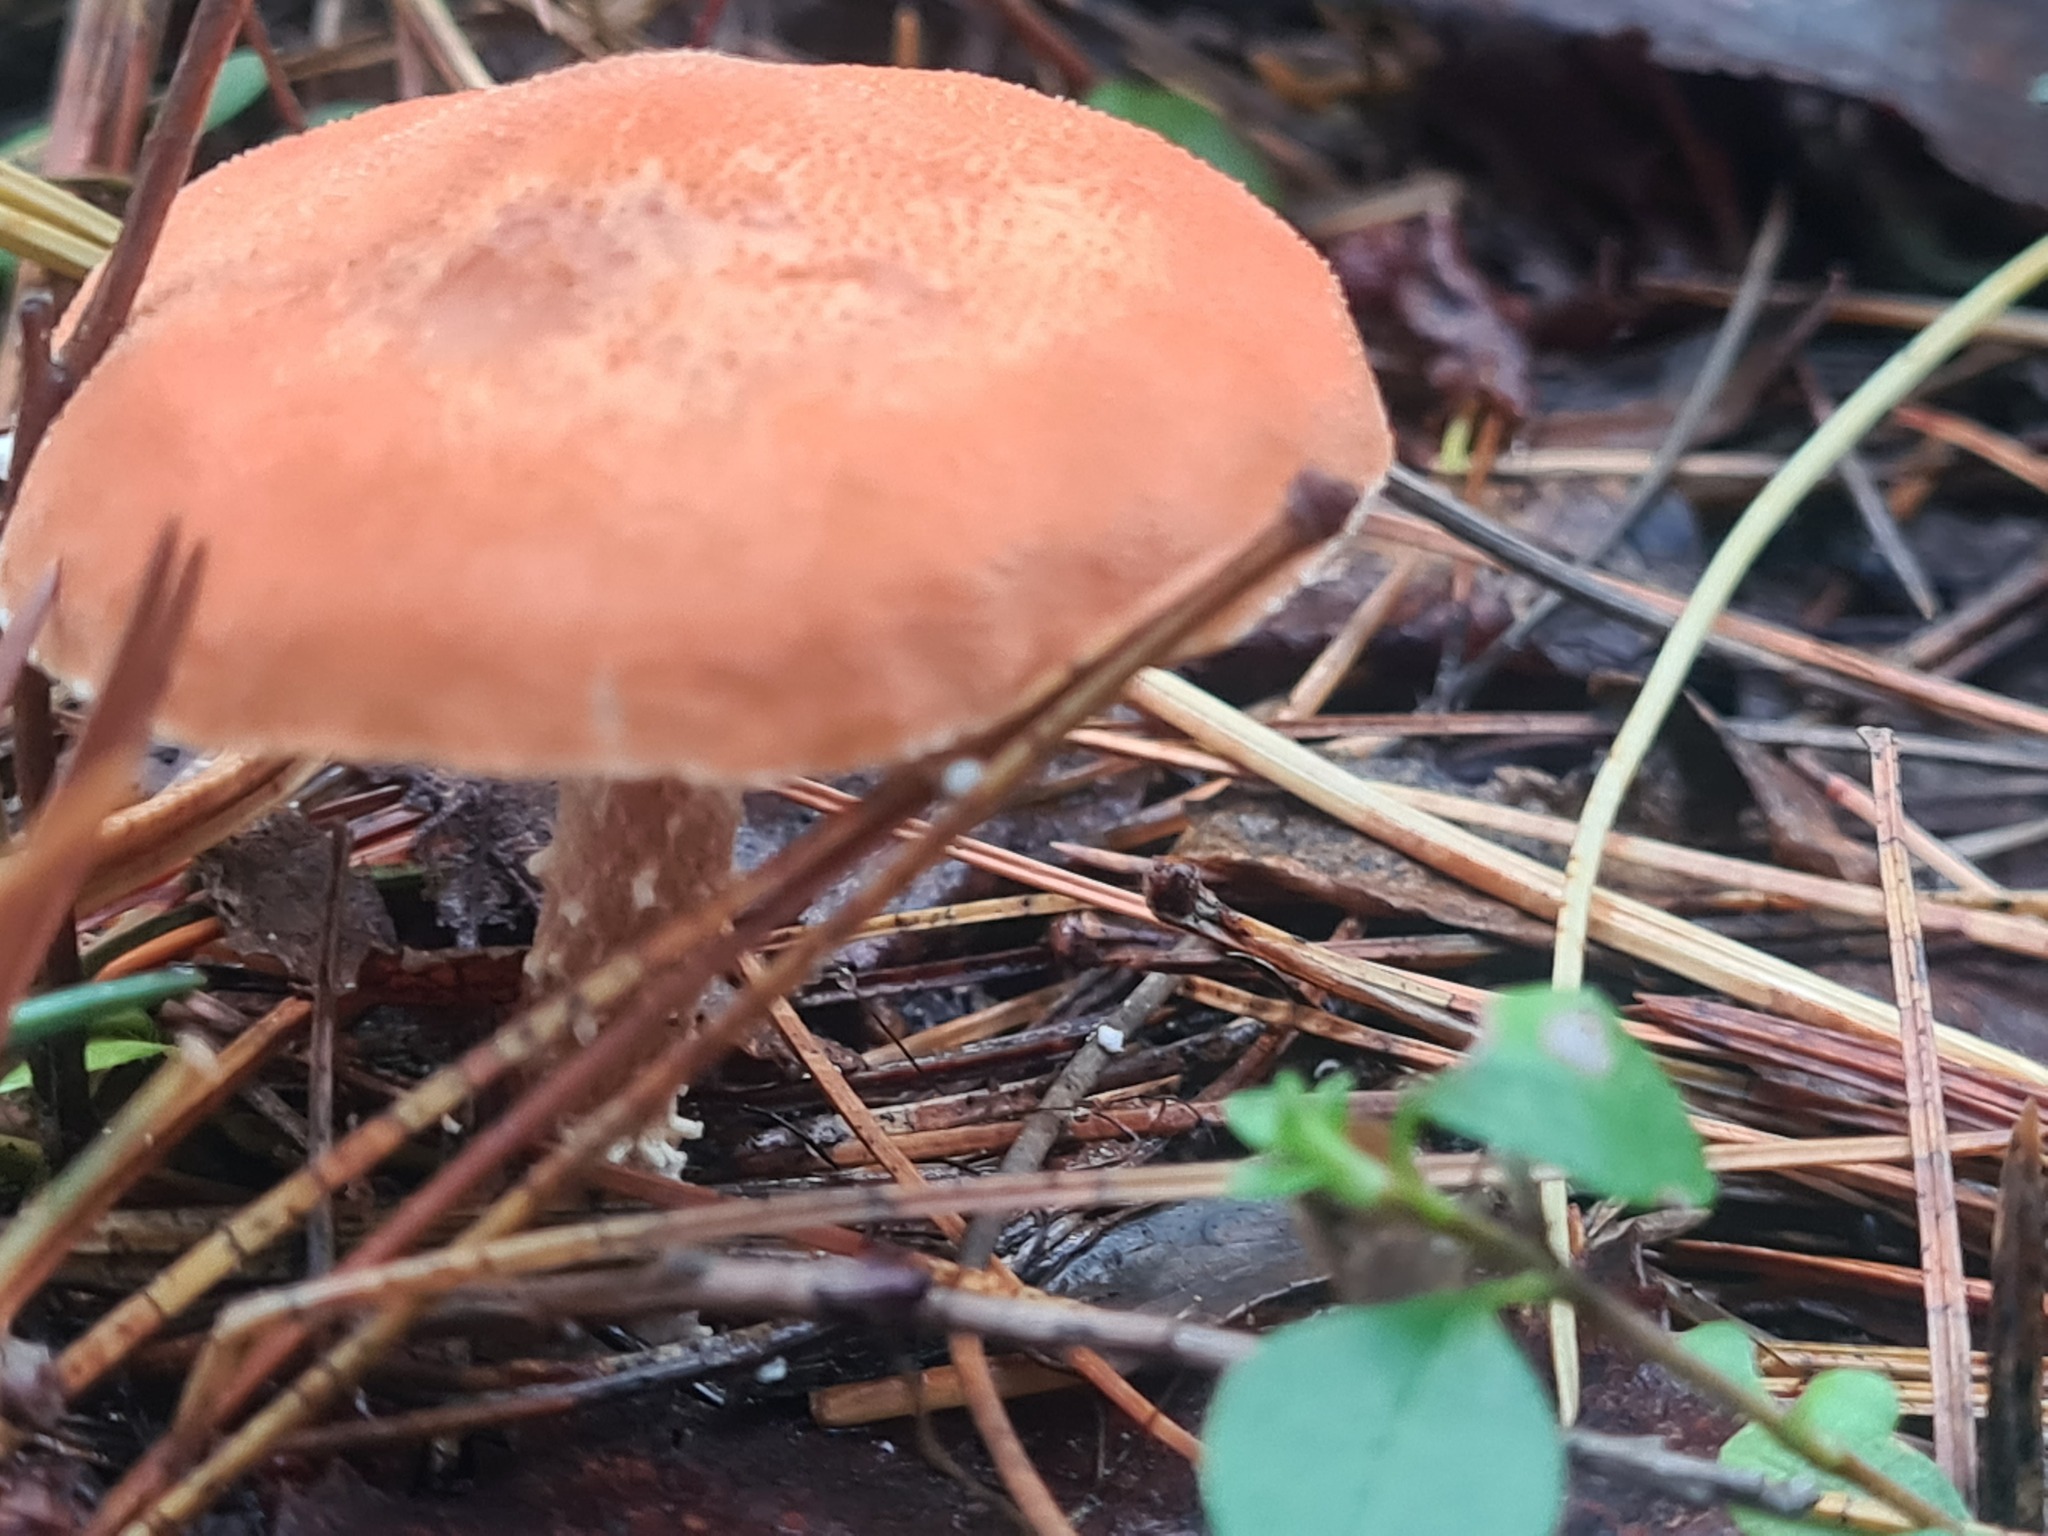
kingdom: Fungi
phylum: Basidiomycota
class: Agaricomycetes
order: Agaricales
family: Agaricaceae
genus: Cystodermella
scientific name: Cystodermella cinnabarina
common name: Cinnabar powdercap
